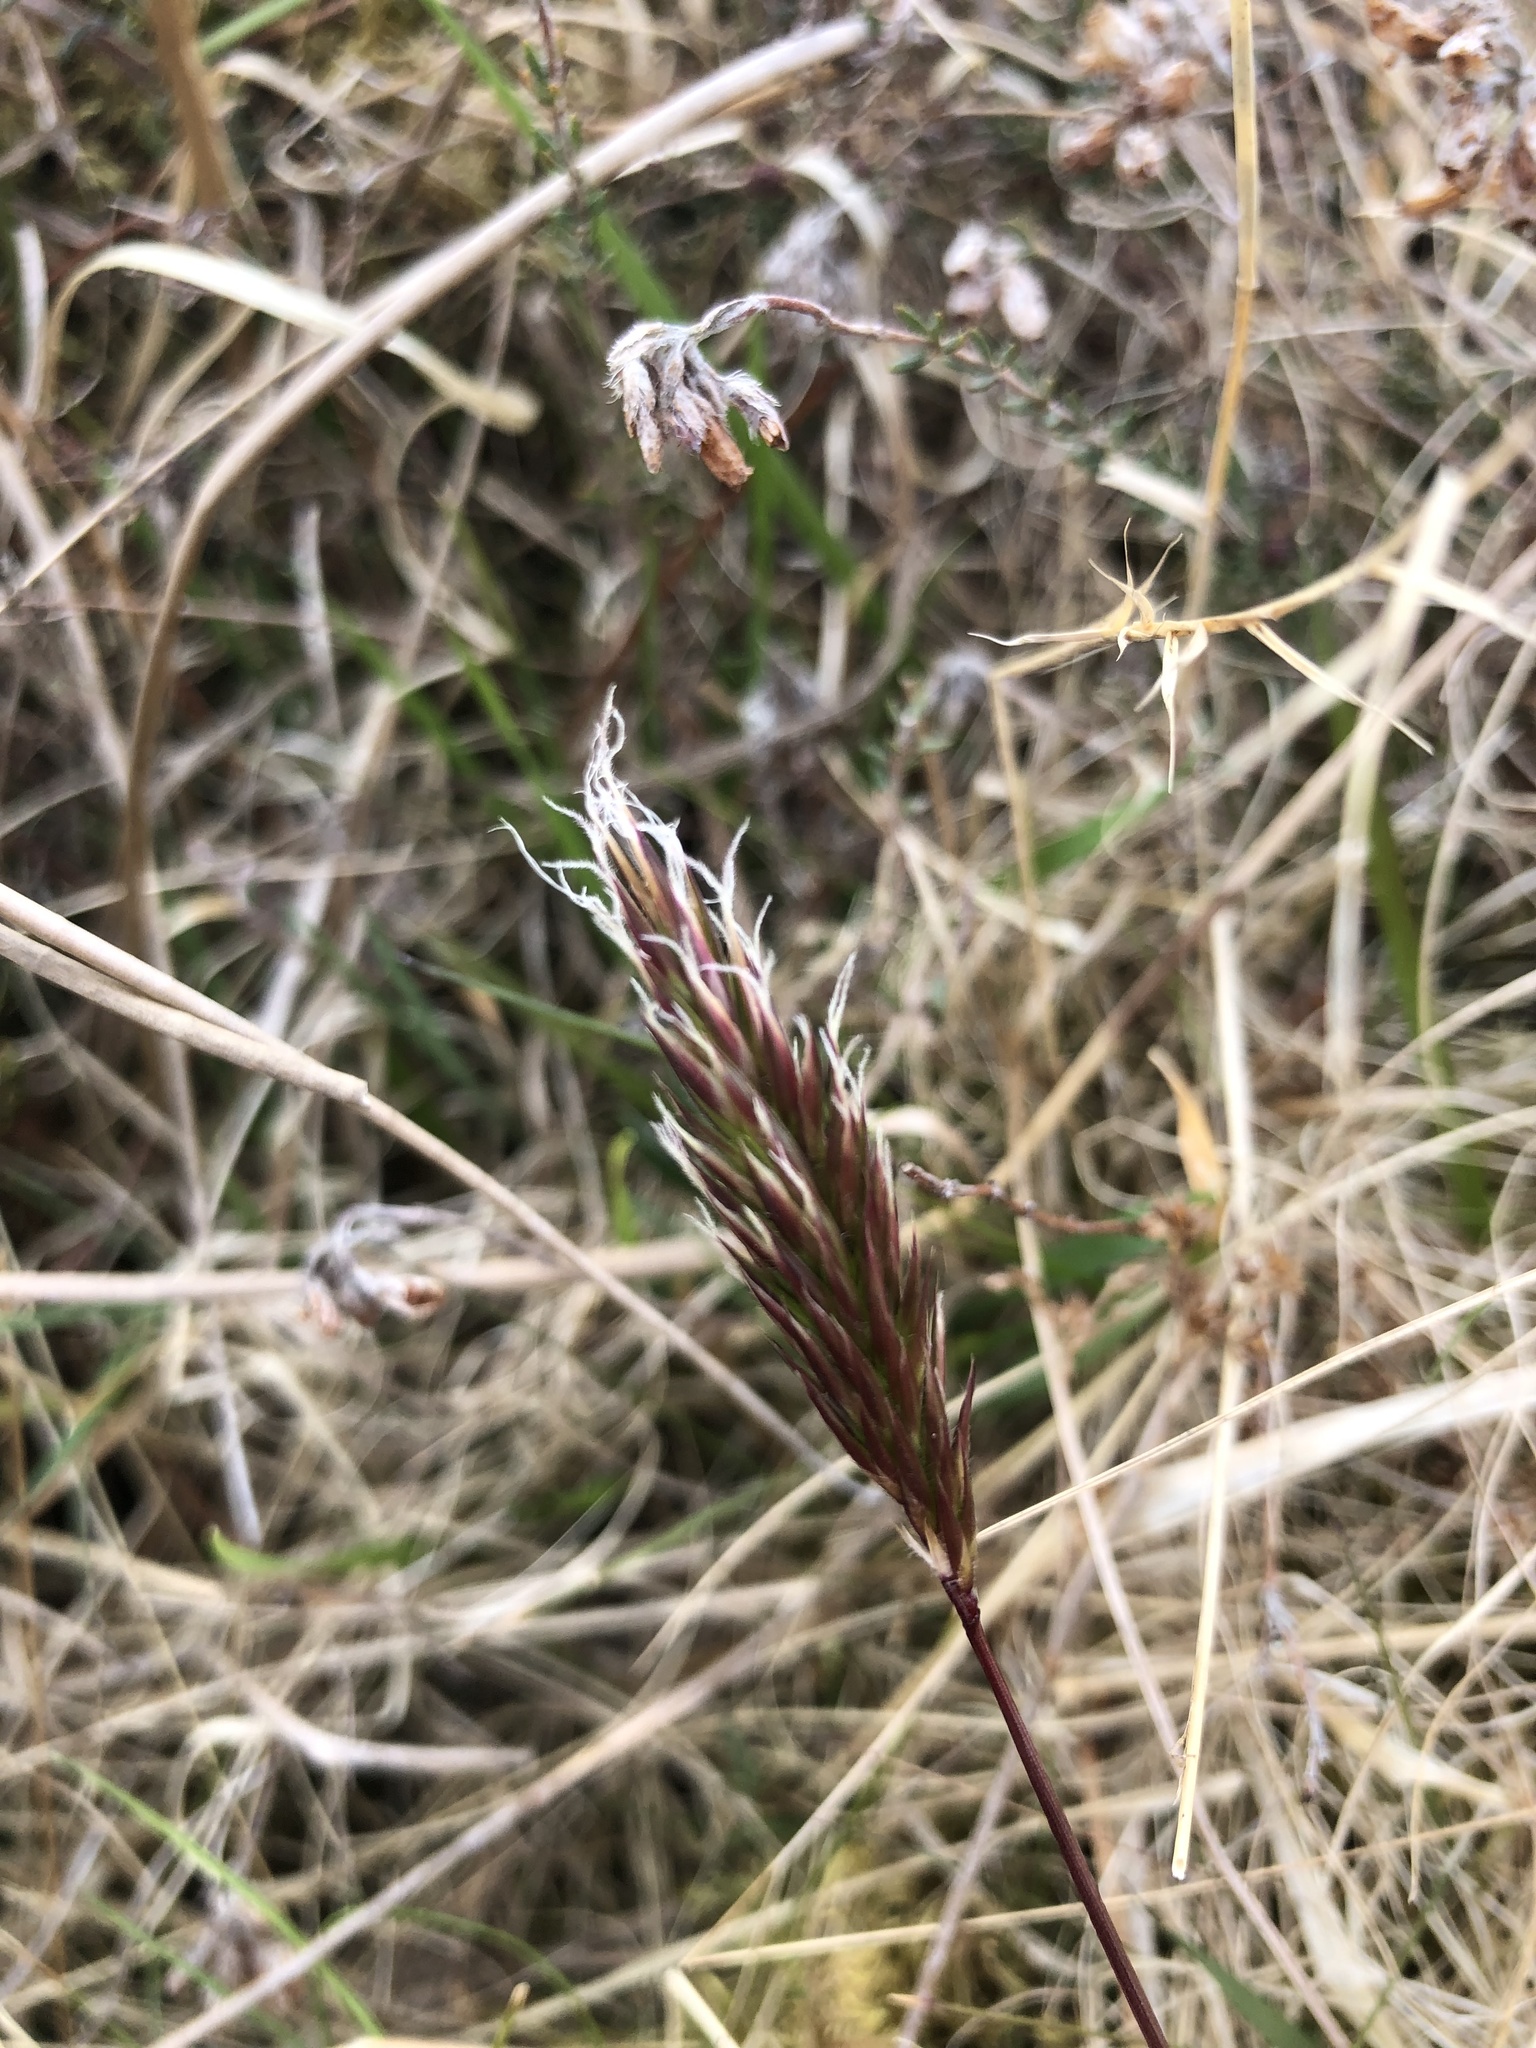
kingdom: Plantae
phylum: Tracheophyta
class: Liliopsida
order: Poales
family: Poaceae
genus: Anthoxanthum
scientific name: Anthoxanthum odoratum
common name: Sweet vernalgrass
